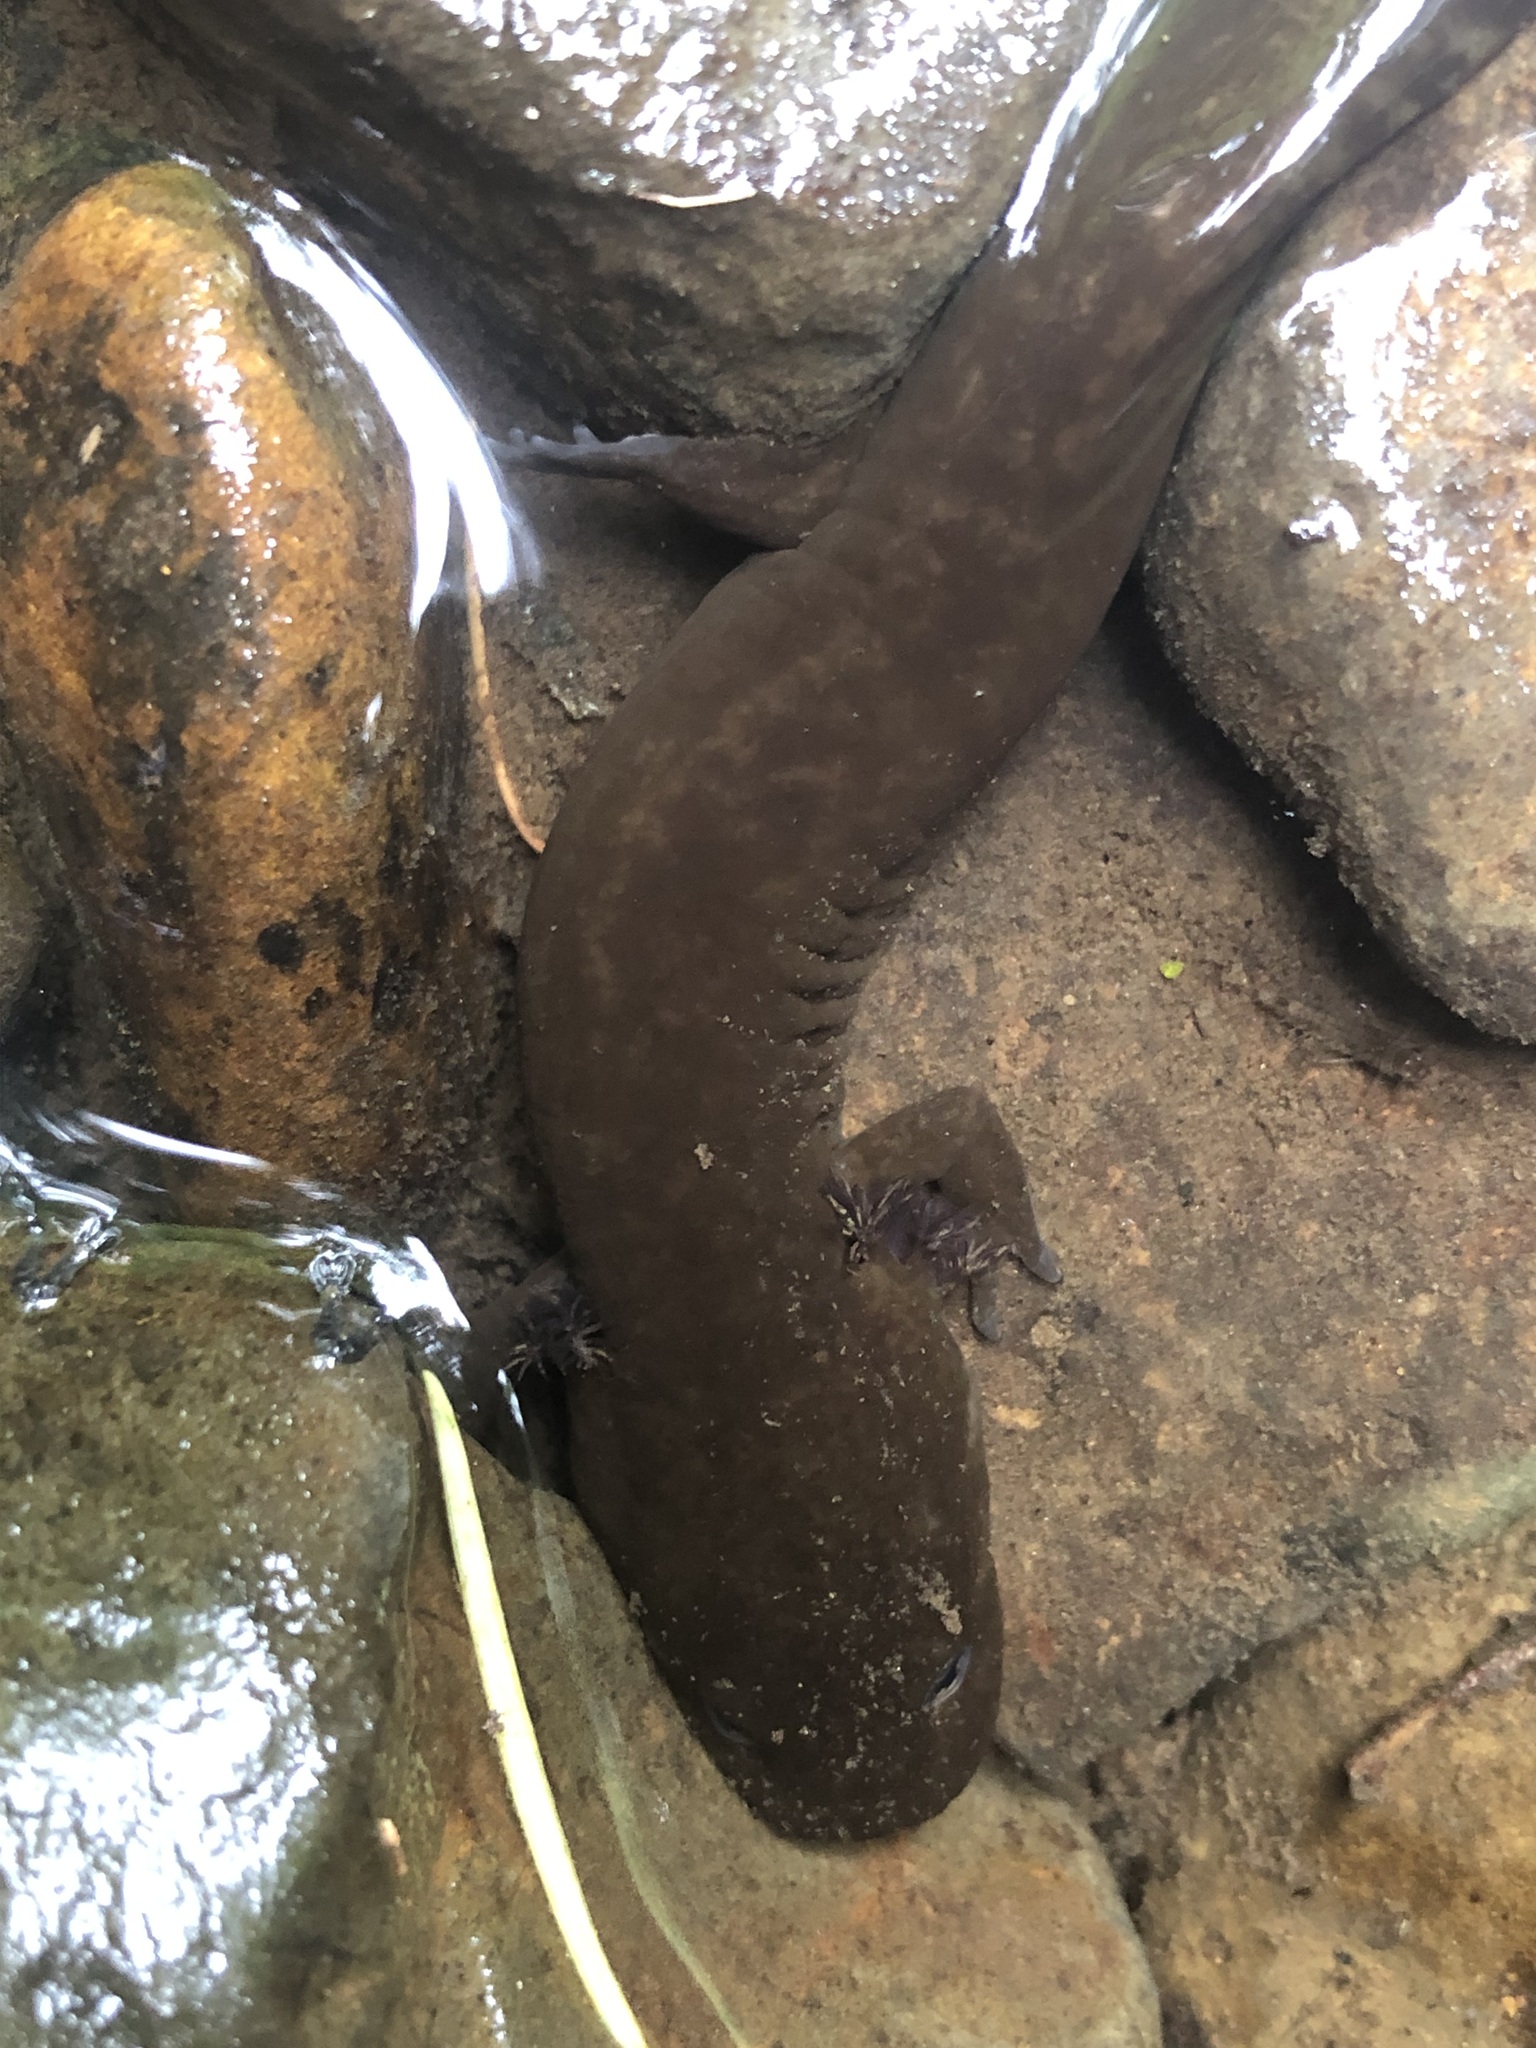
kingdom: Animalia
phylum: Chordata
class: Amphibia
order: Caudata
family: Ambystomatidae
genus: Dicamptodon
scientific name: Dicamptodon tenebrosus
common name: Coastal giant salamander
